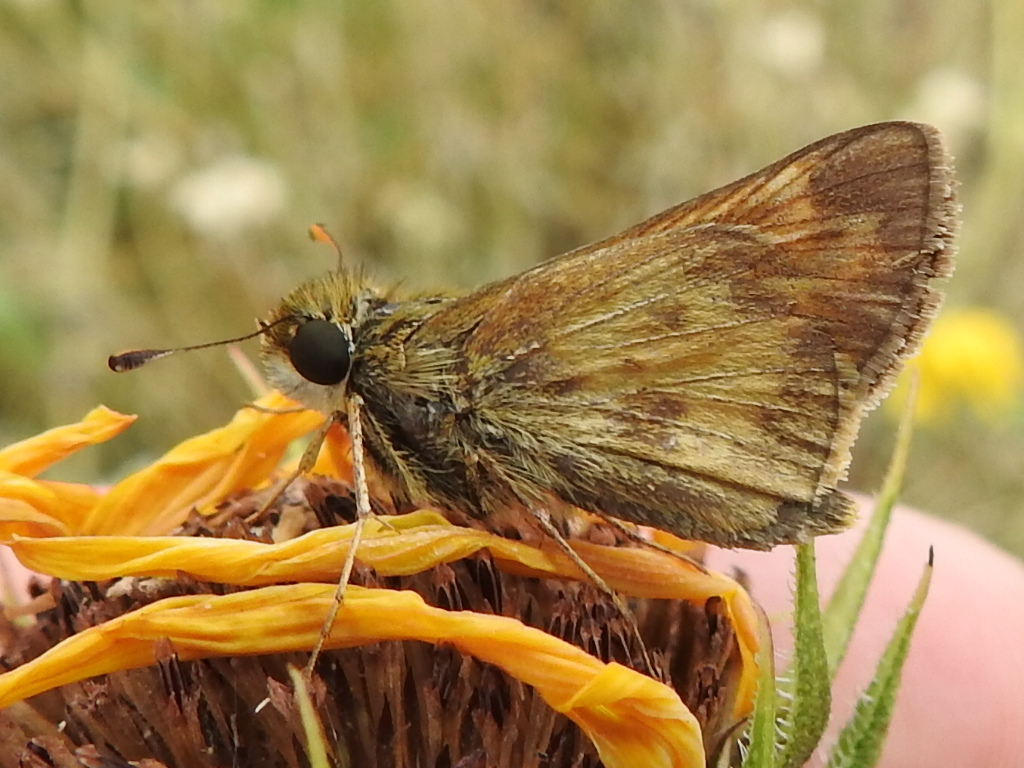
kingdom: Animalia
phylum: Arthropoda
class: Insecta
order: Lepidoptera
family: Hesperiidae
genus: Atalopedes
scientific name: Atalopedes
